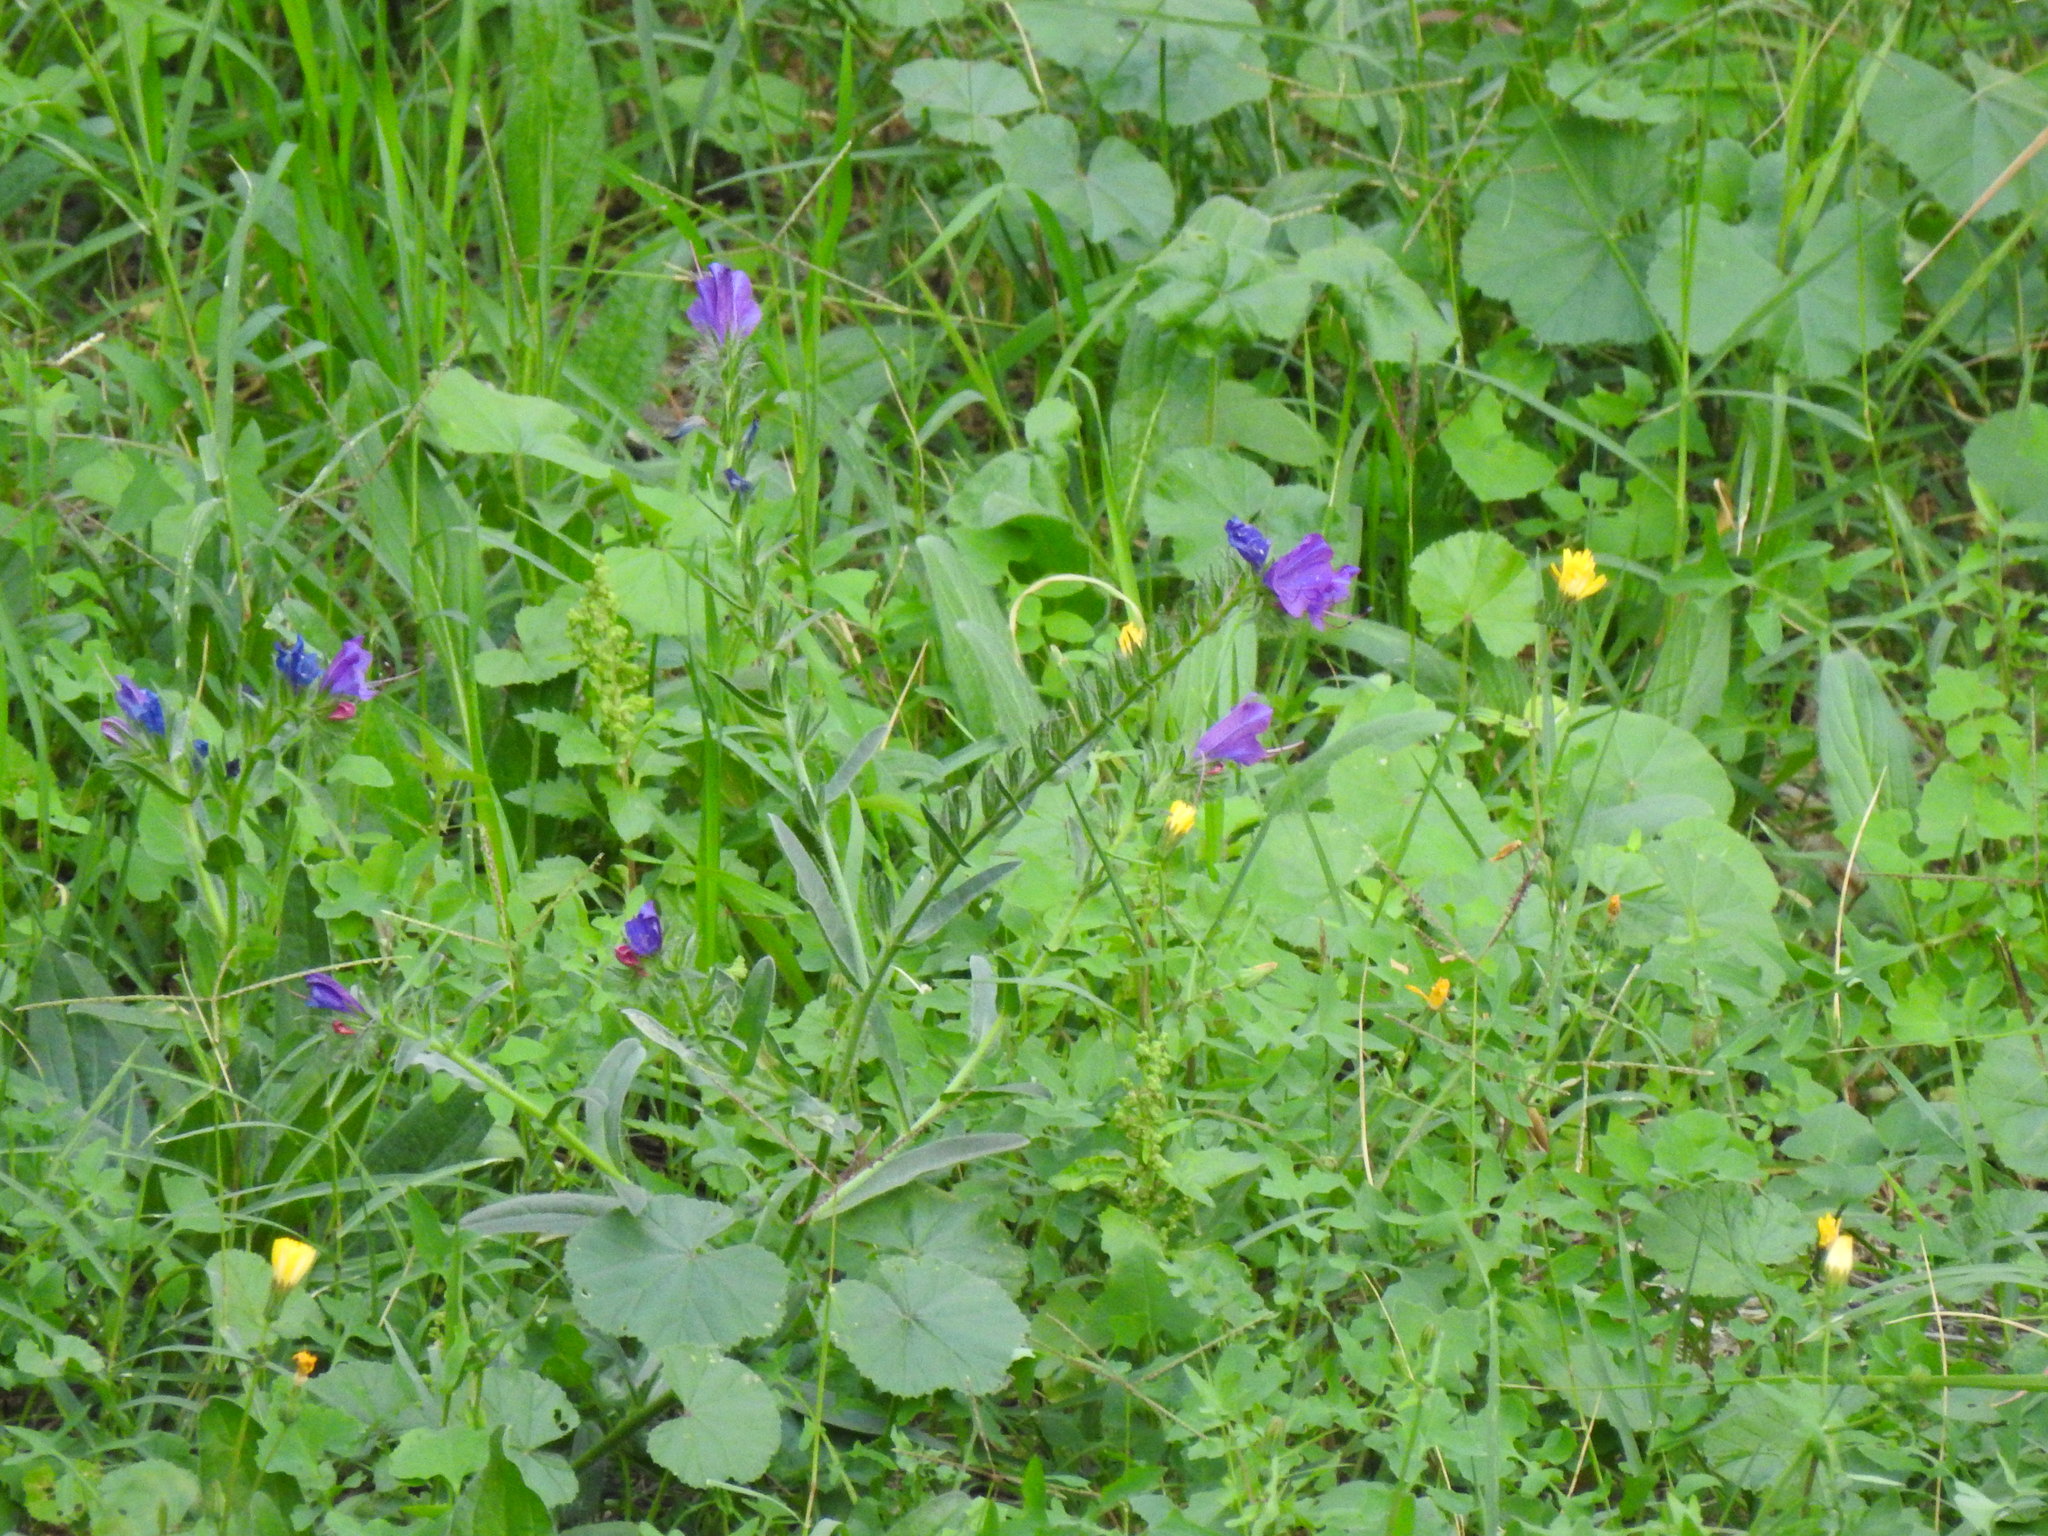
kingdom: Plantae
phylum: Tracheophyta
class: Magnoliopsida
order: Boraginales
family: Boraginaceae
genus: Echium
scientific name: Echium plantagineum
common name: Purple viper's-bugloss
